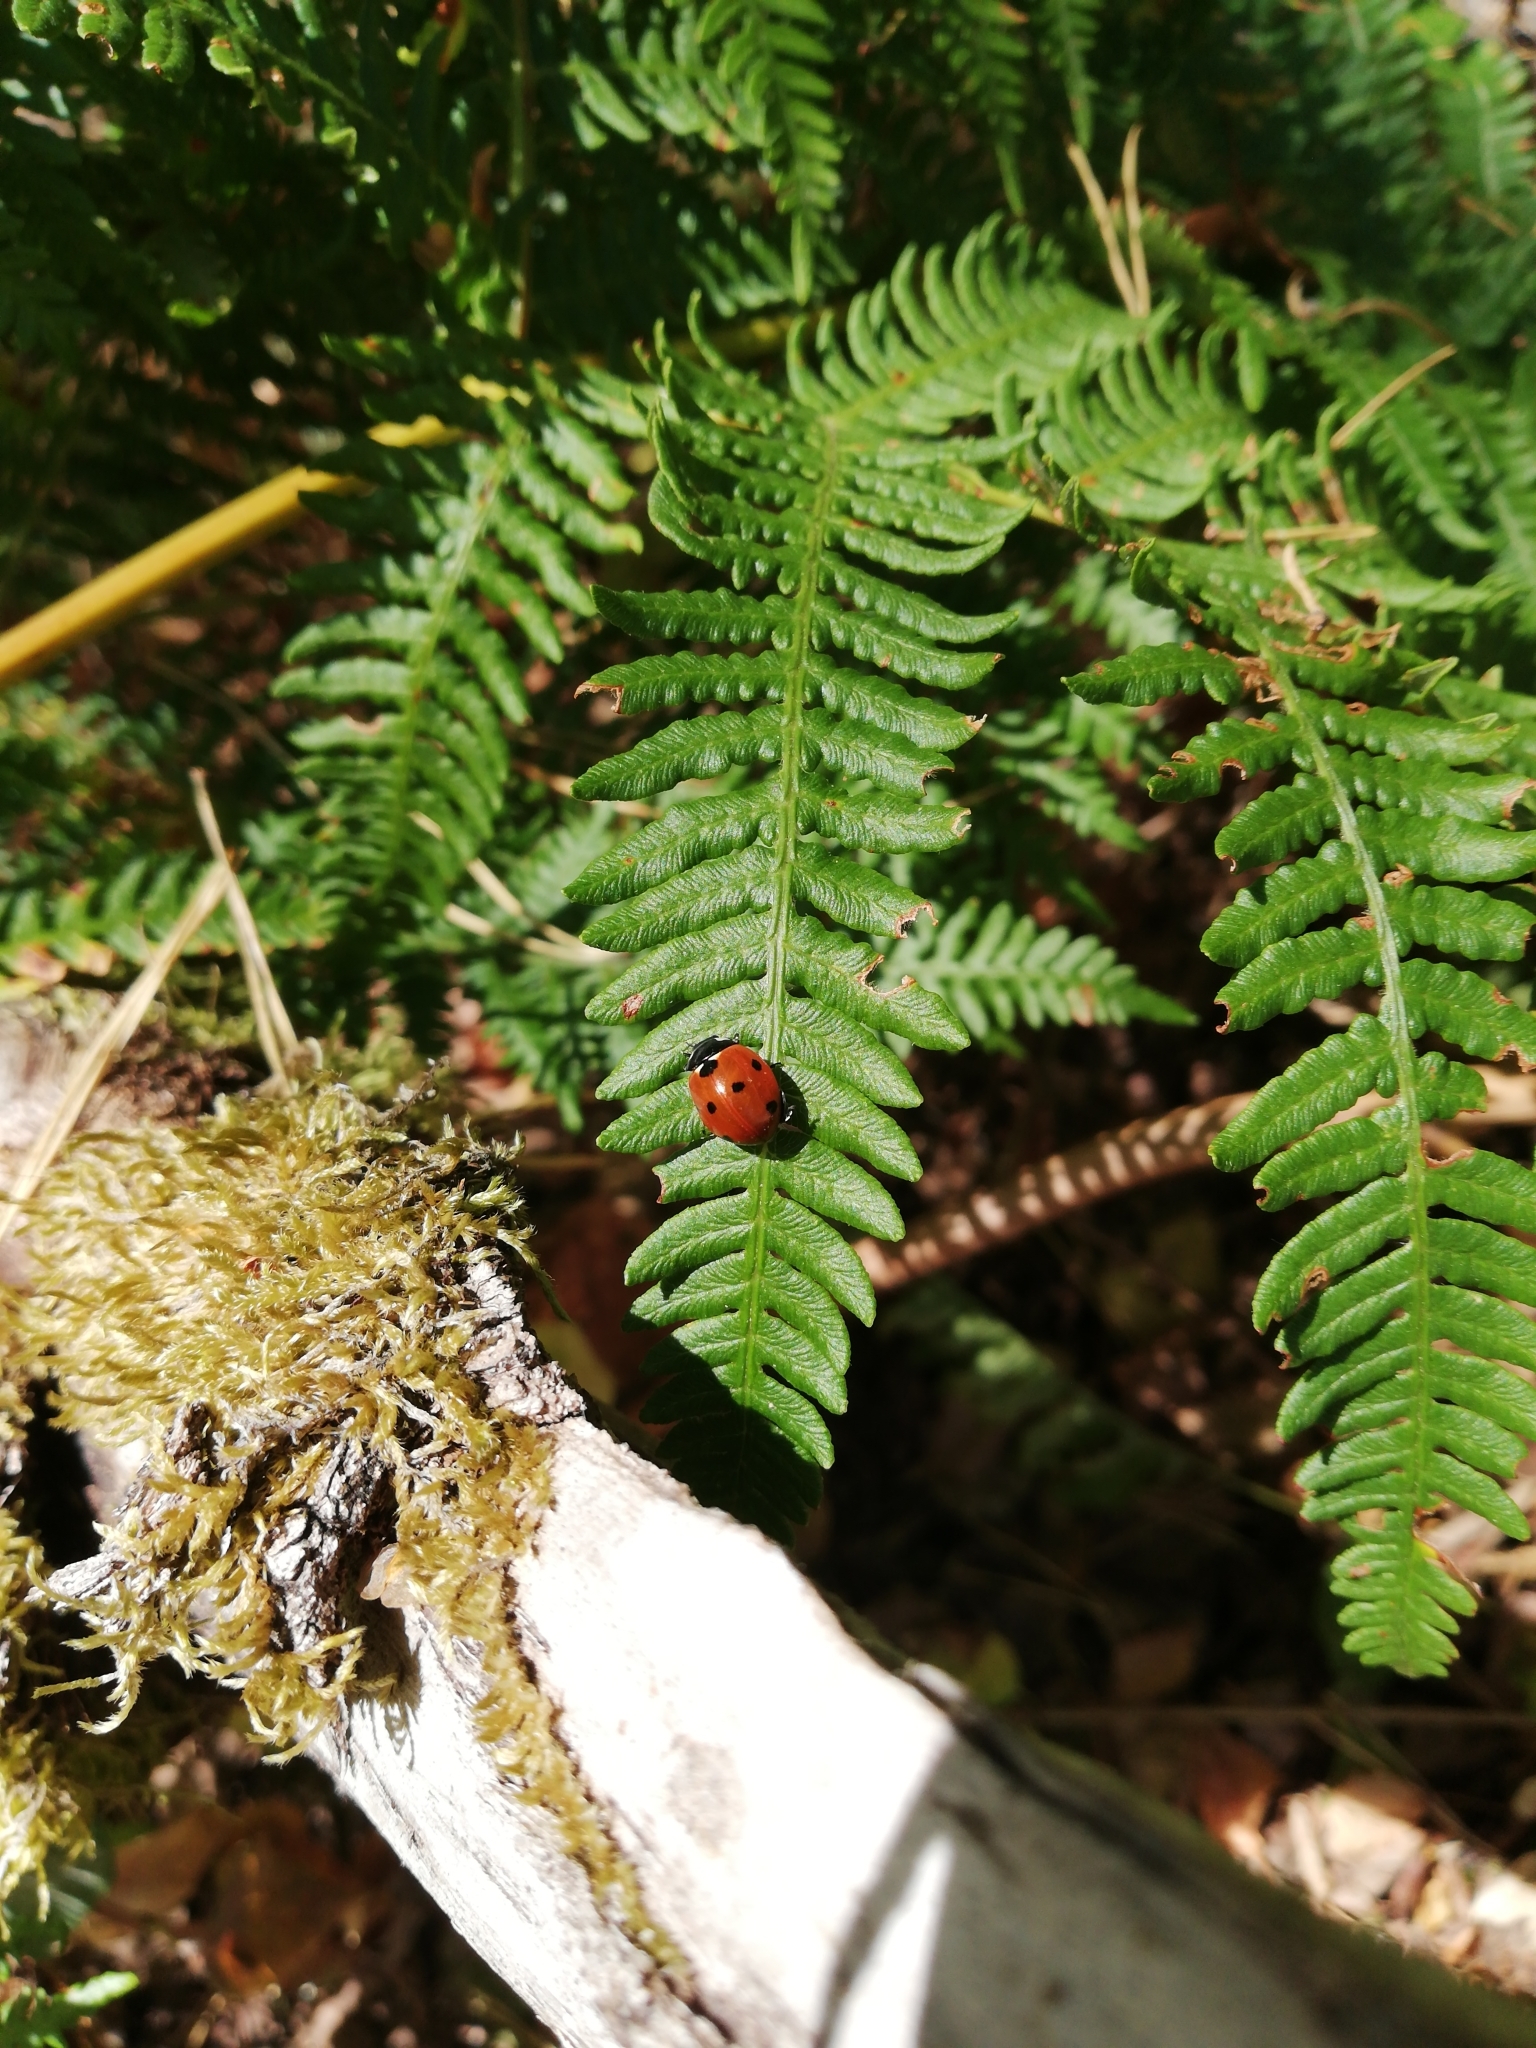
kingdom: Animalia
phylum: Arthropoda
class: Insecta
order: Coleoptera
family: Coccinellidae
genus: Coccinella
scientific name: Coccinella septempunctata
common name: Sevenspotted lady beetle
